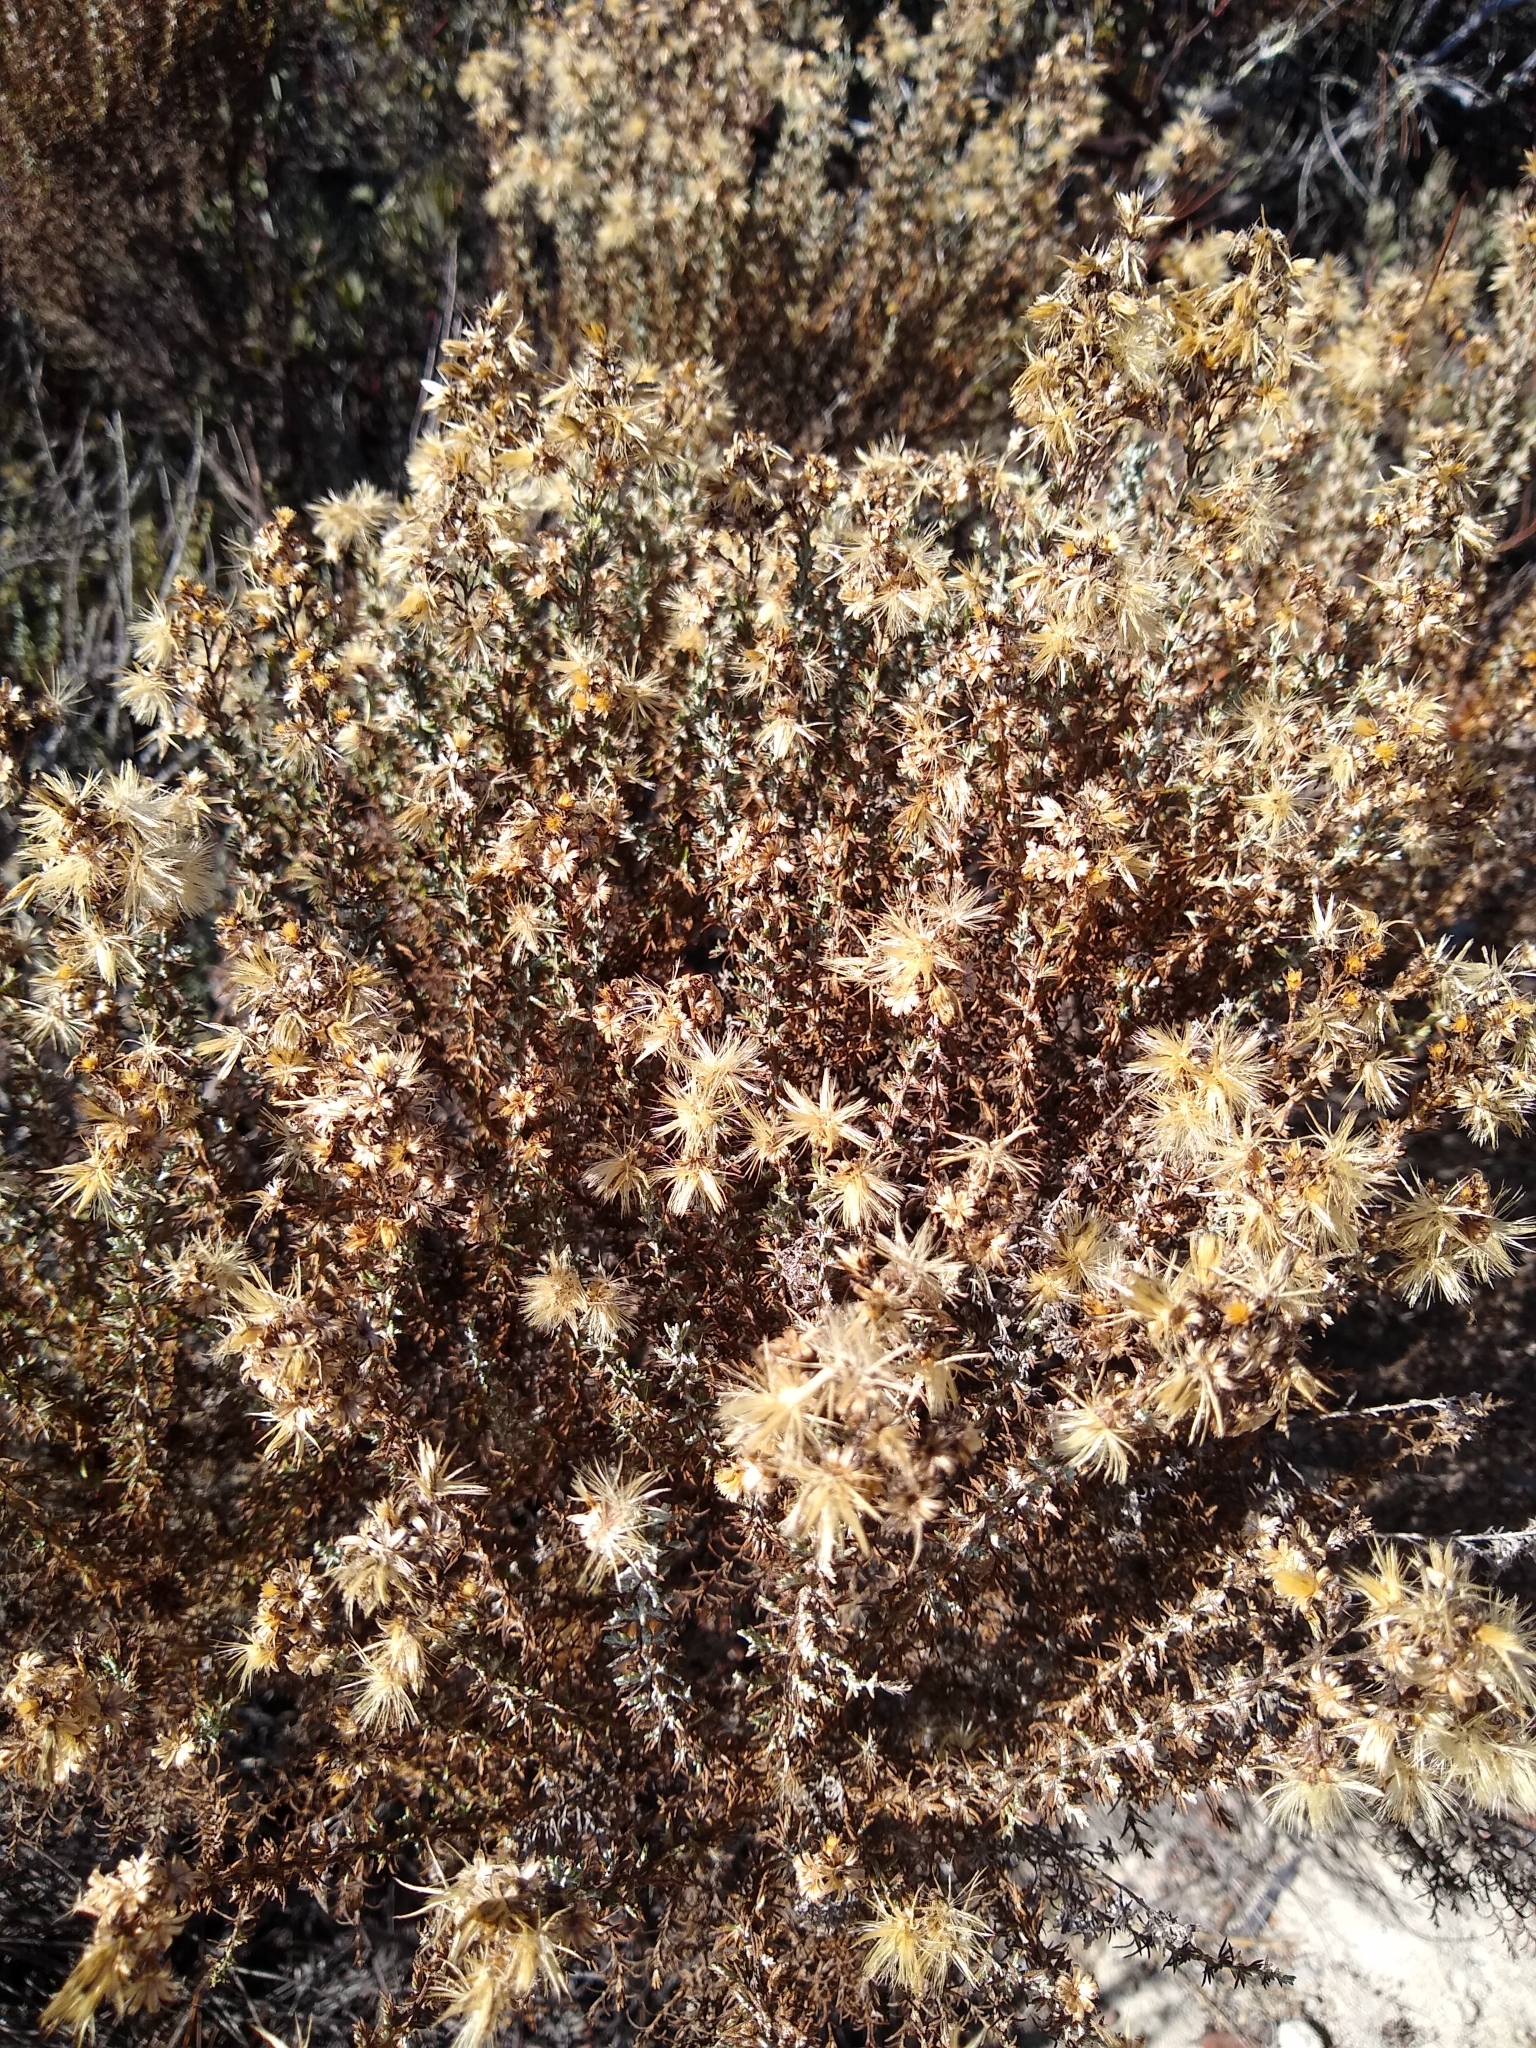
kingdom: Plantae
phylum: Tracheophyta
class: Magnoliopsida
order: Asterales
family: Asteraceae
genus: Ericameria
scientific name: Ericameria ericoides
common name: California goldenbush
